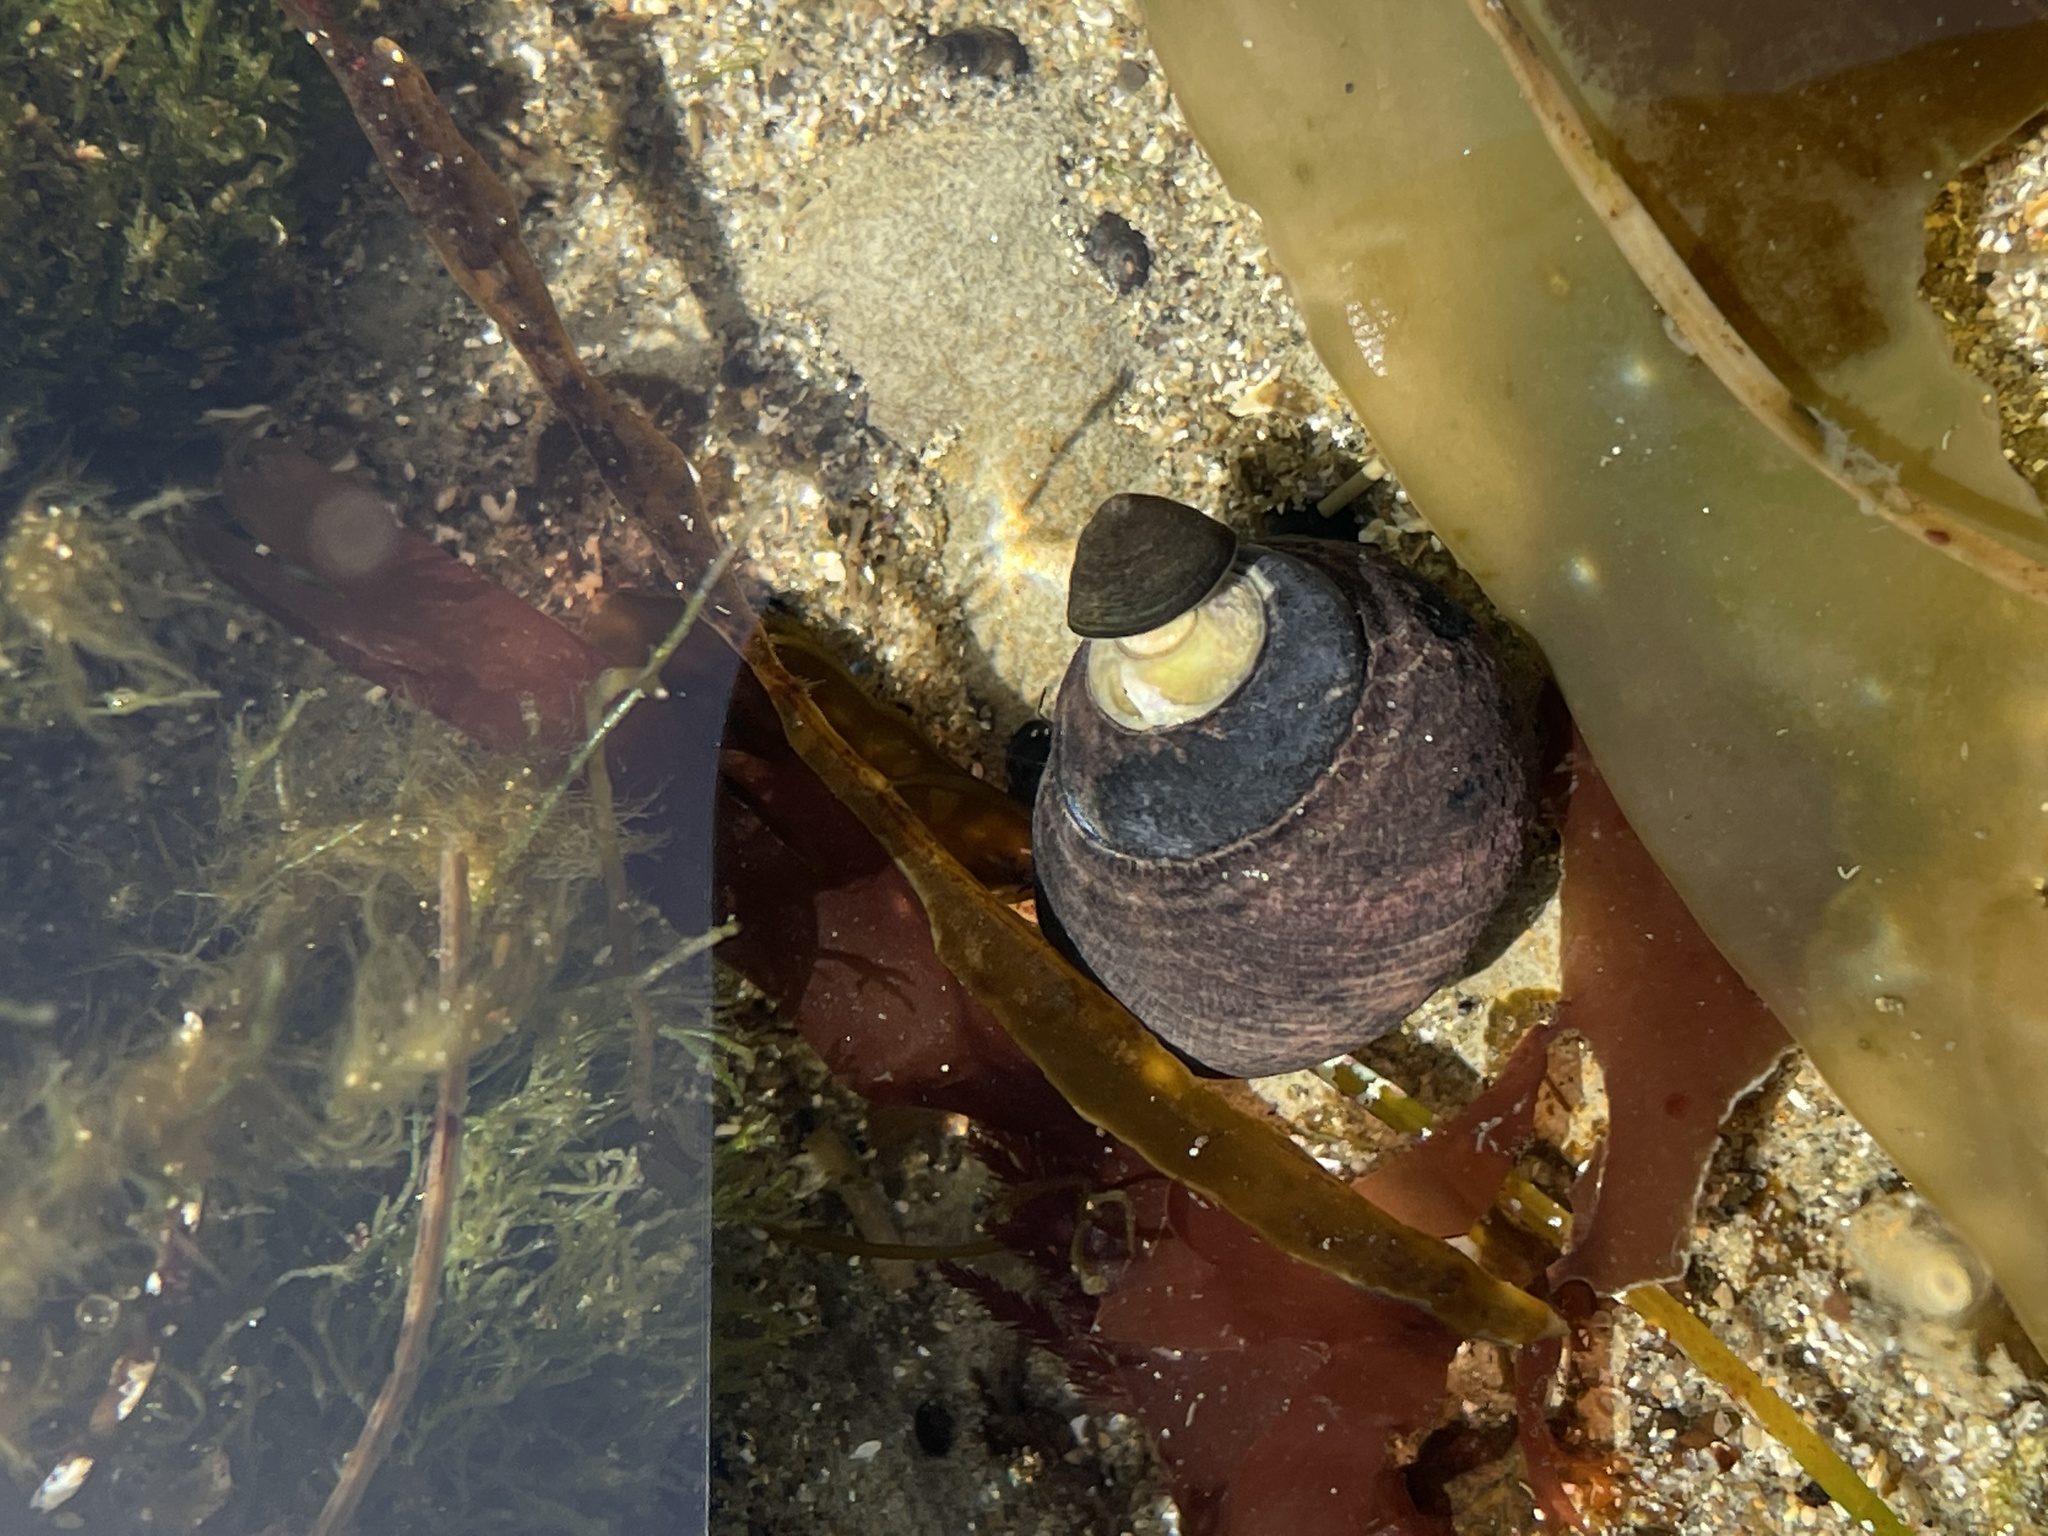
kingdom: Animalia
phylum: Mollusca
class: Gastropoda
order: Trochida
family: Tegulidae
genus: Tegula
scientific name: Tegula funebralis
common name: Black tegula
